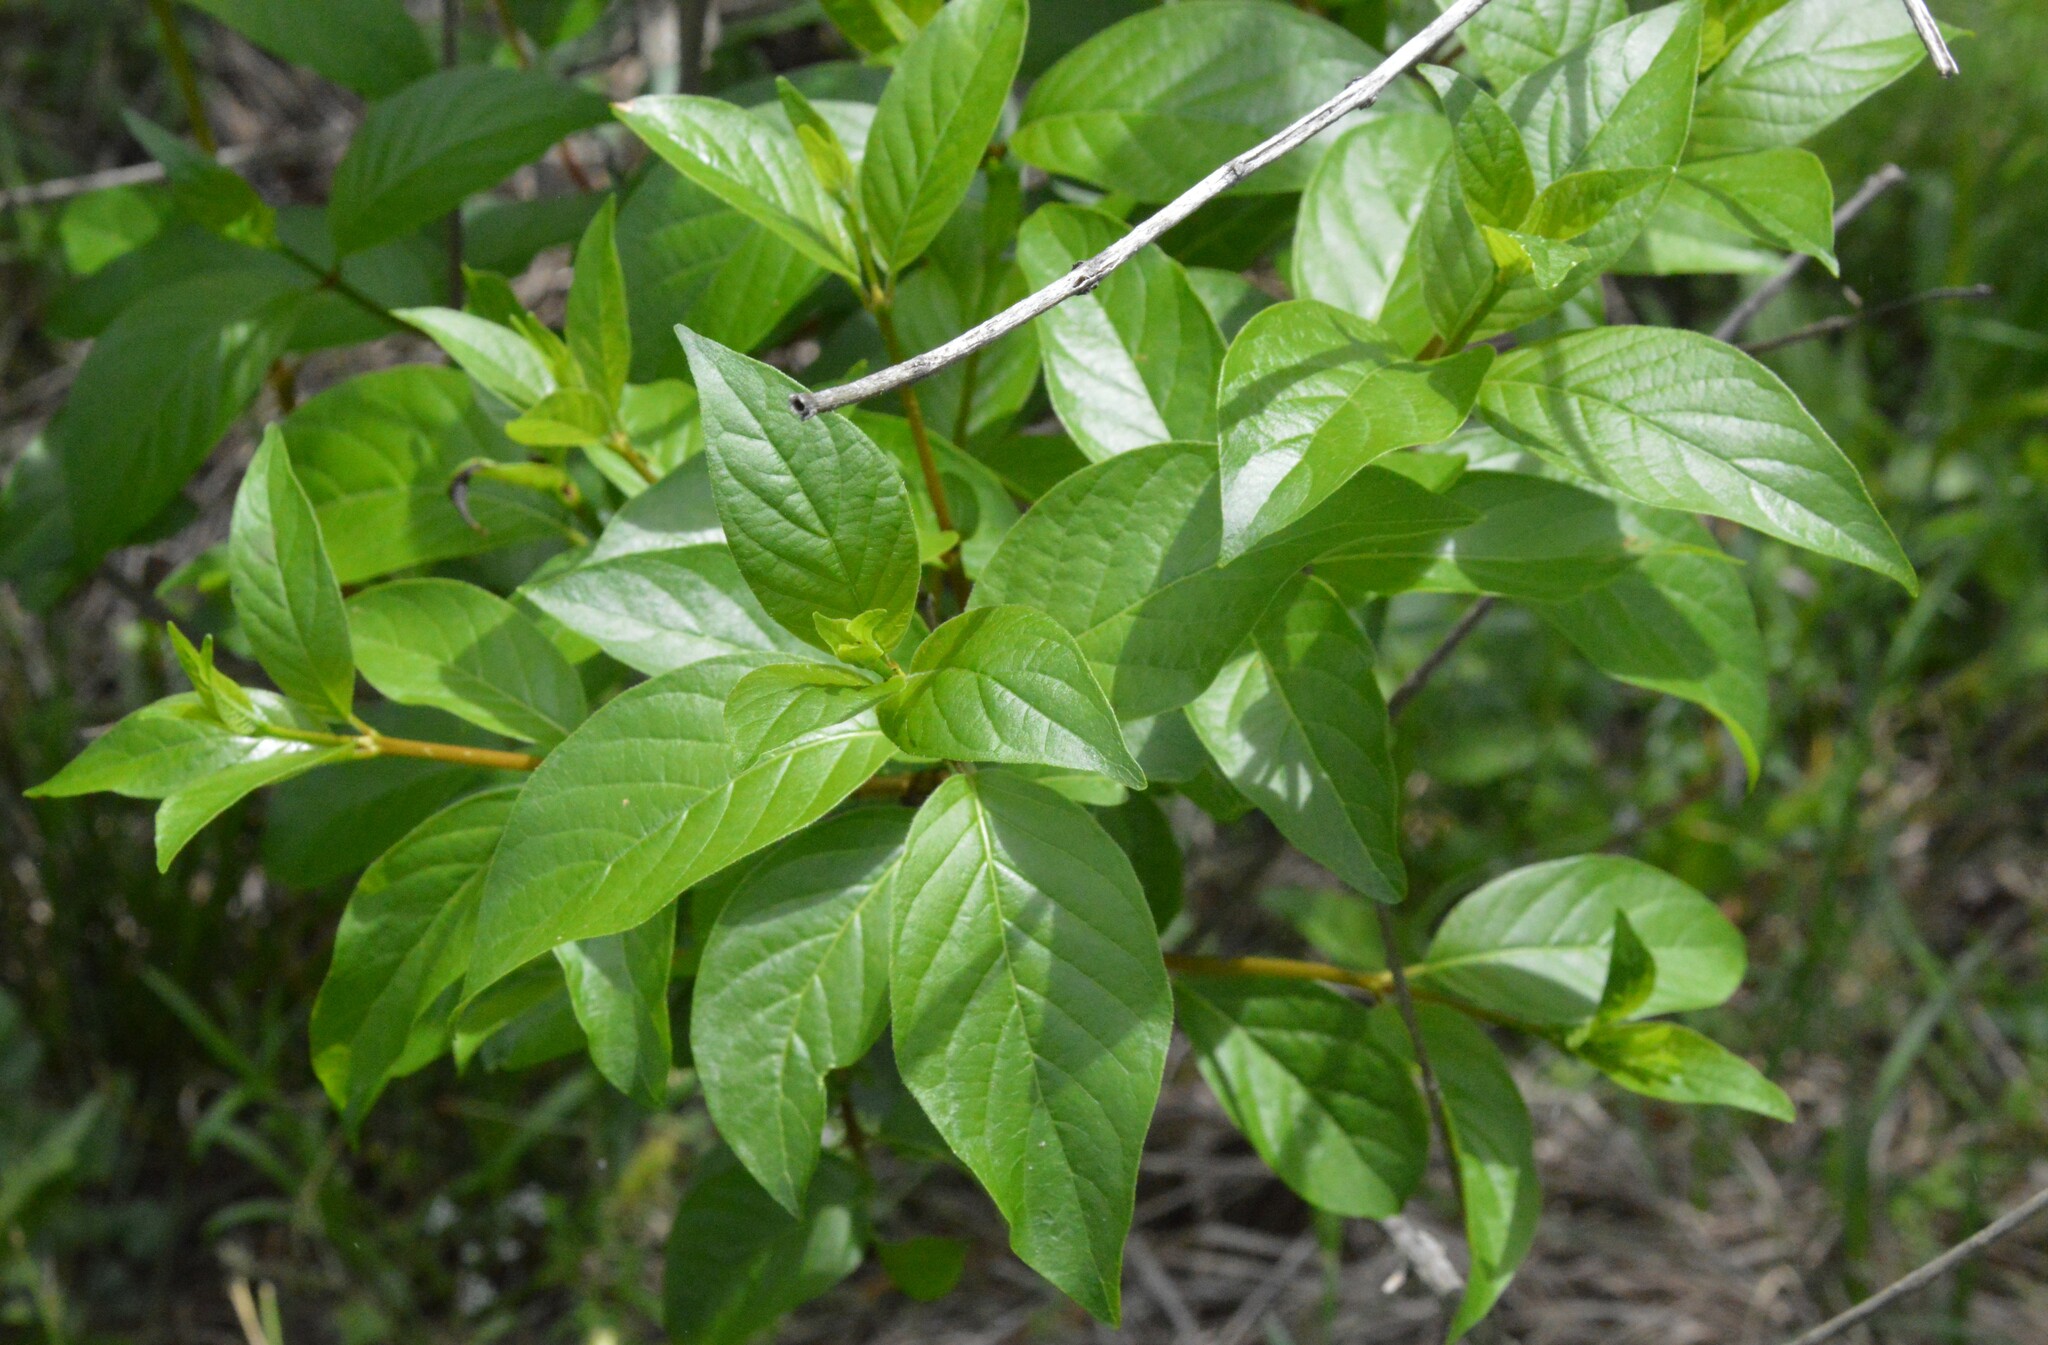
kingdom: Plantae
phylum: Tracheophyta
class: Magnoliopsida
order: Gentianales
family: Rubiaceae
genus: Cephalanthus
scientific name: Cephalanthus occidentalis
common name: Button-willow
